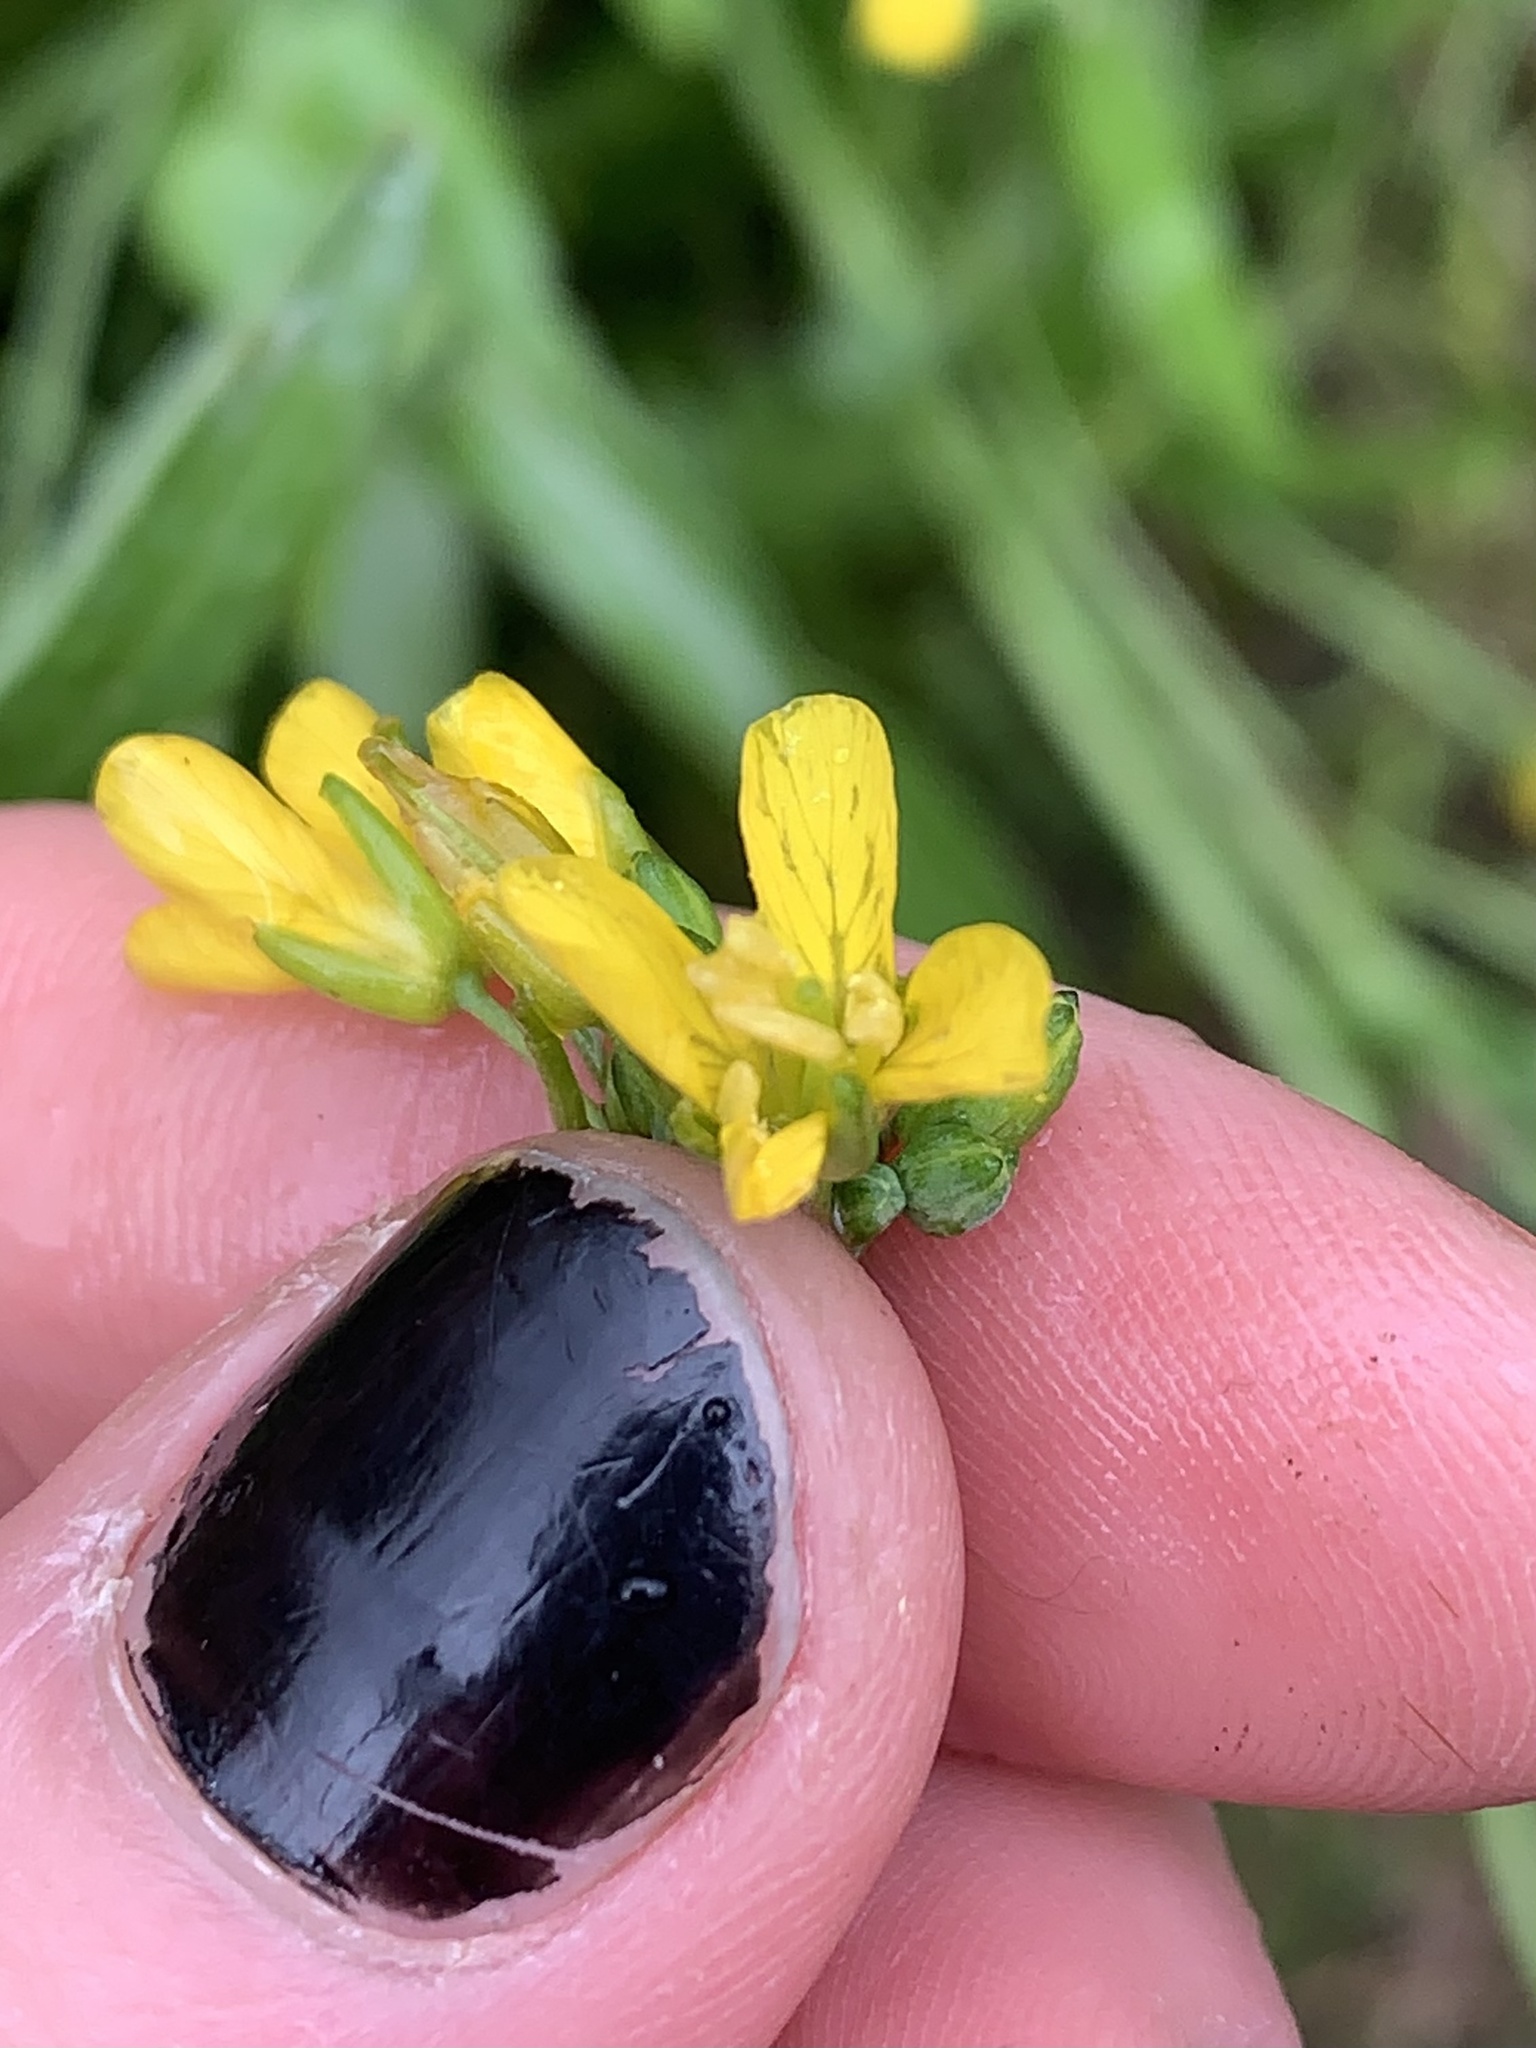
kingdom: Plantae
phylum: Tracheophyta
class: Magnoliopsida
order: Brassicales
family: Brassicaceae
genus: Brassica
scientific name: Brassica rapa
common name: Field mustard
